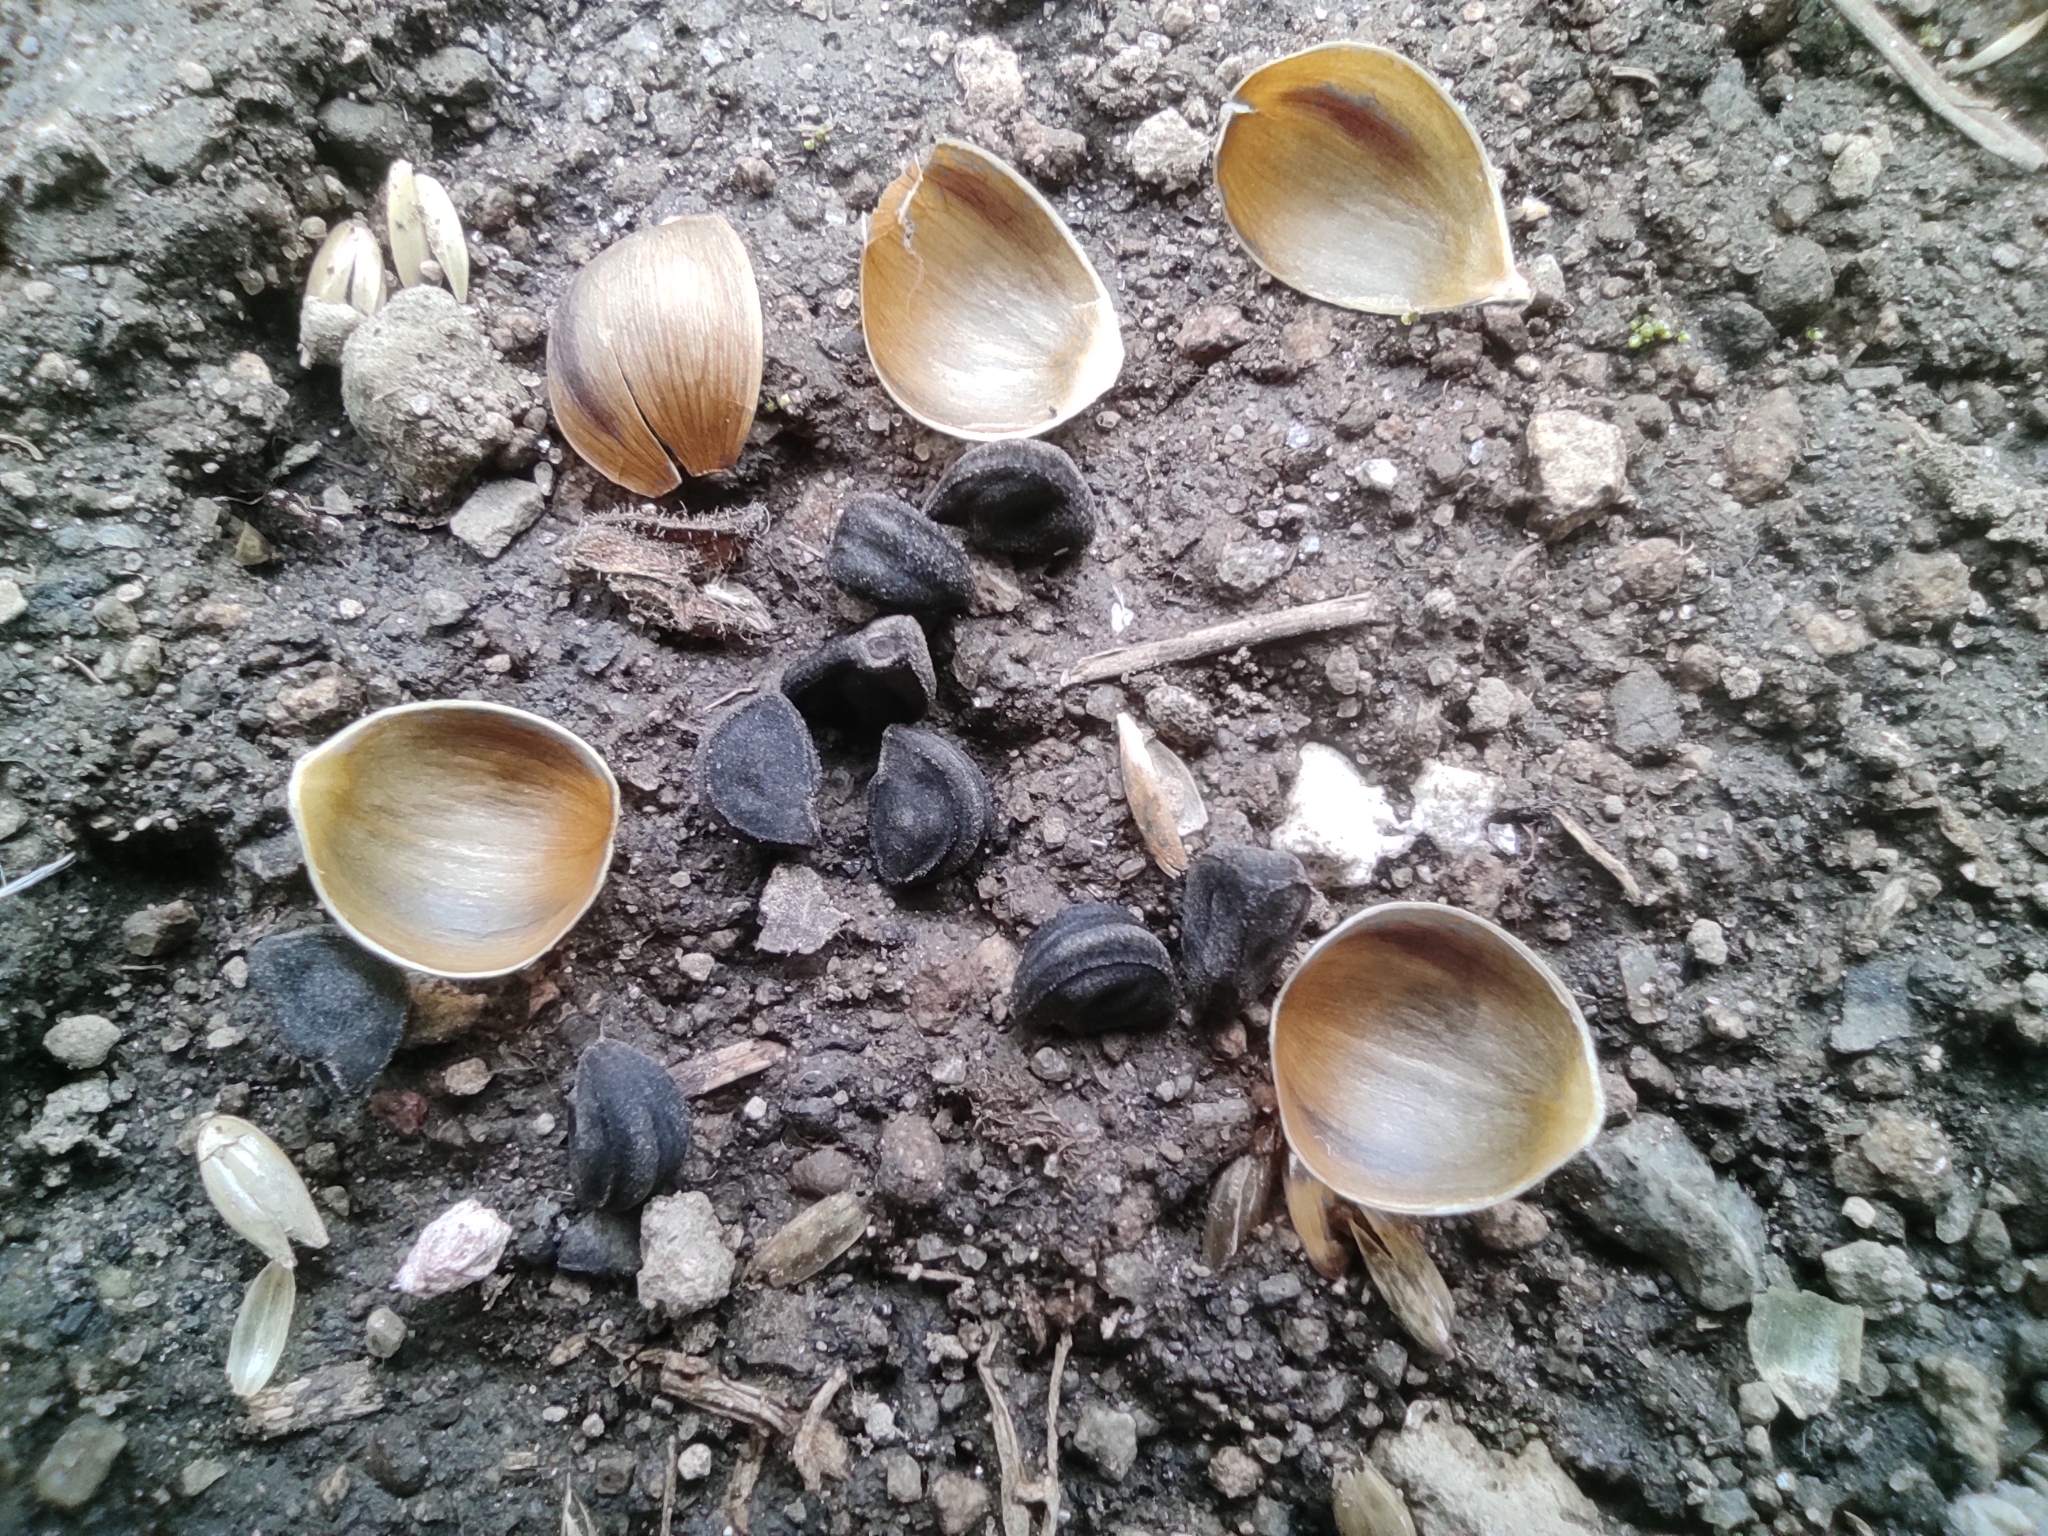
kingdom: Plantae
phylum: Tracheophyta
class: Magnoliopsida
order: Solanales
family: Convolvulaceae
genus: Ipomoea
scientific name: Ipomoea purpurea
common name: Common morning-glory
